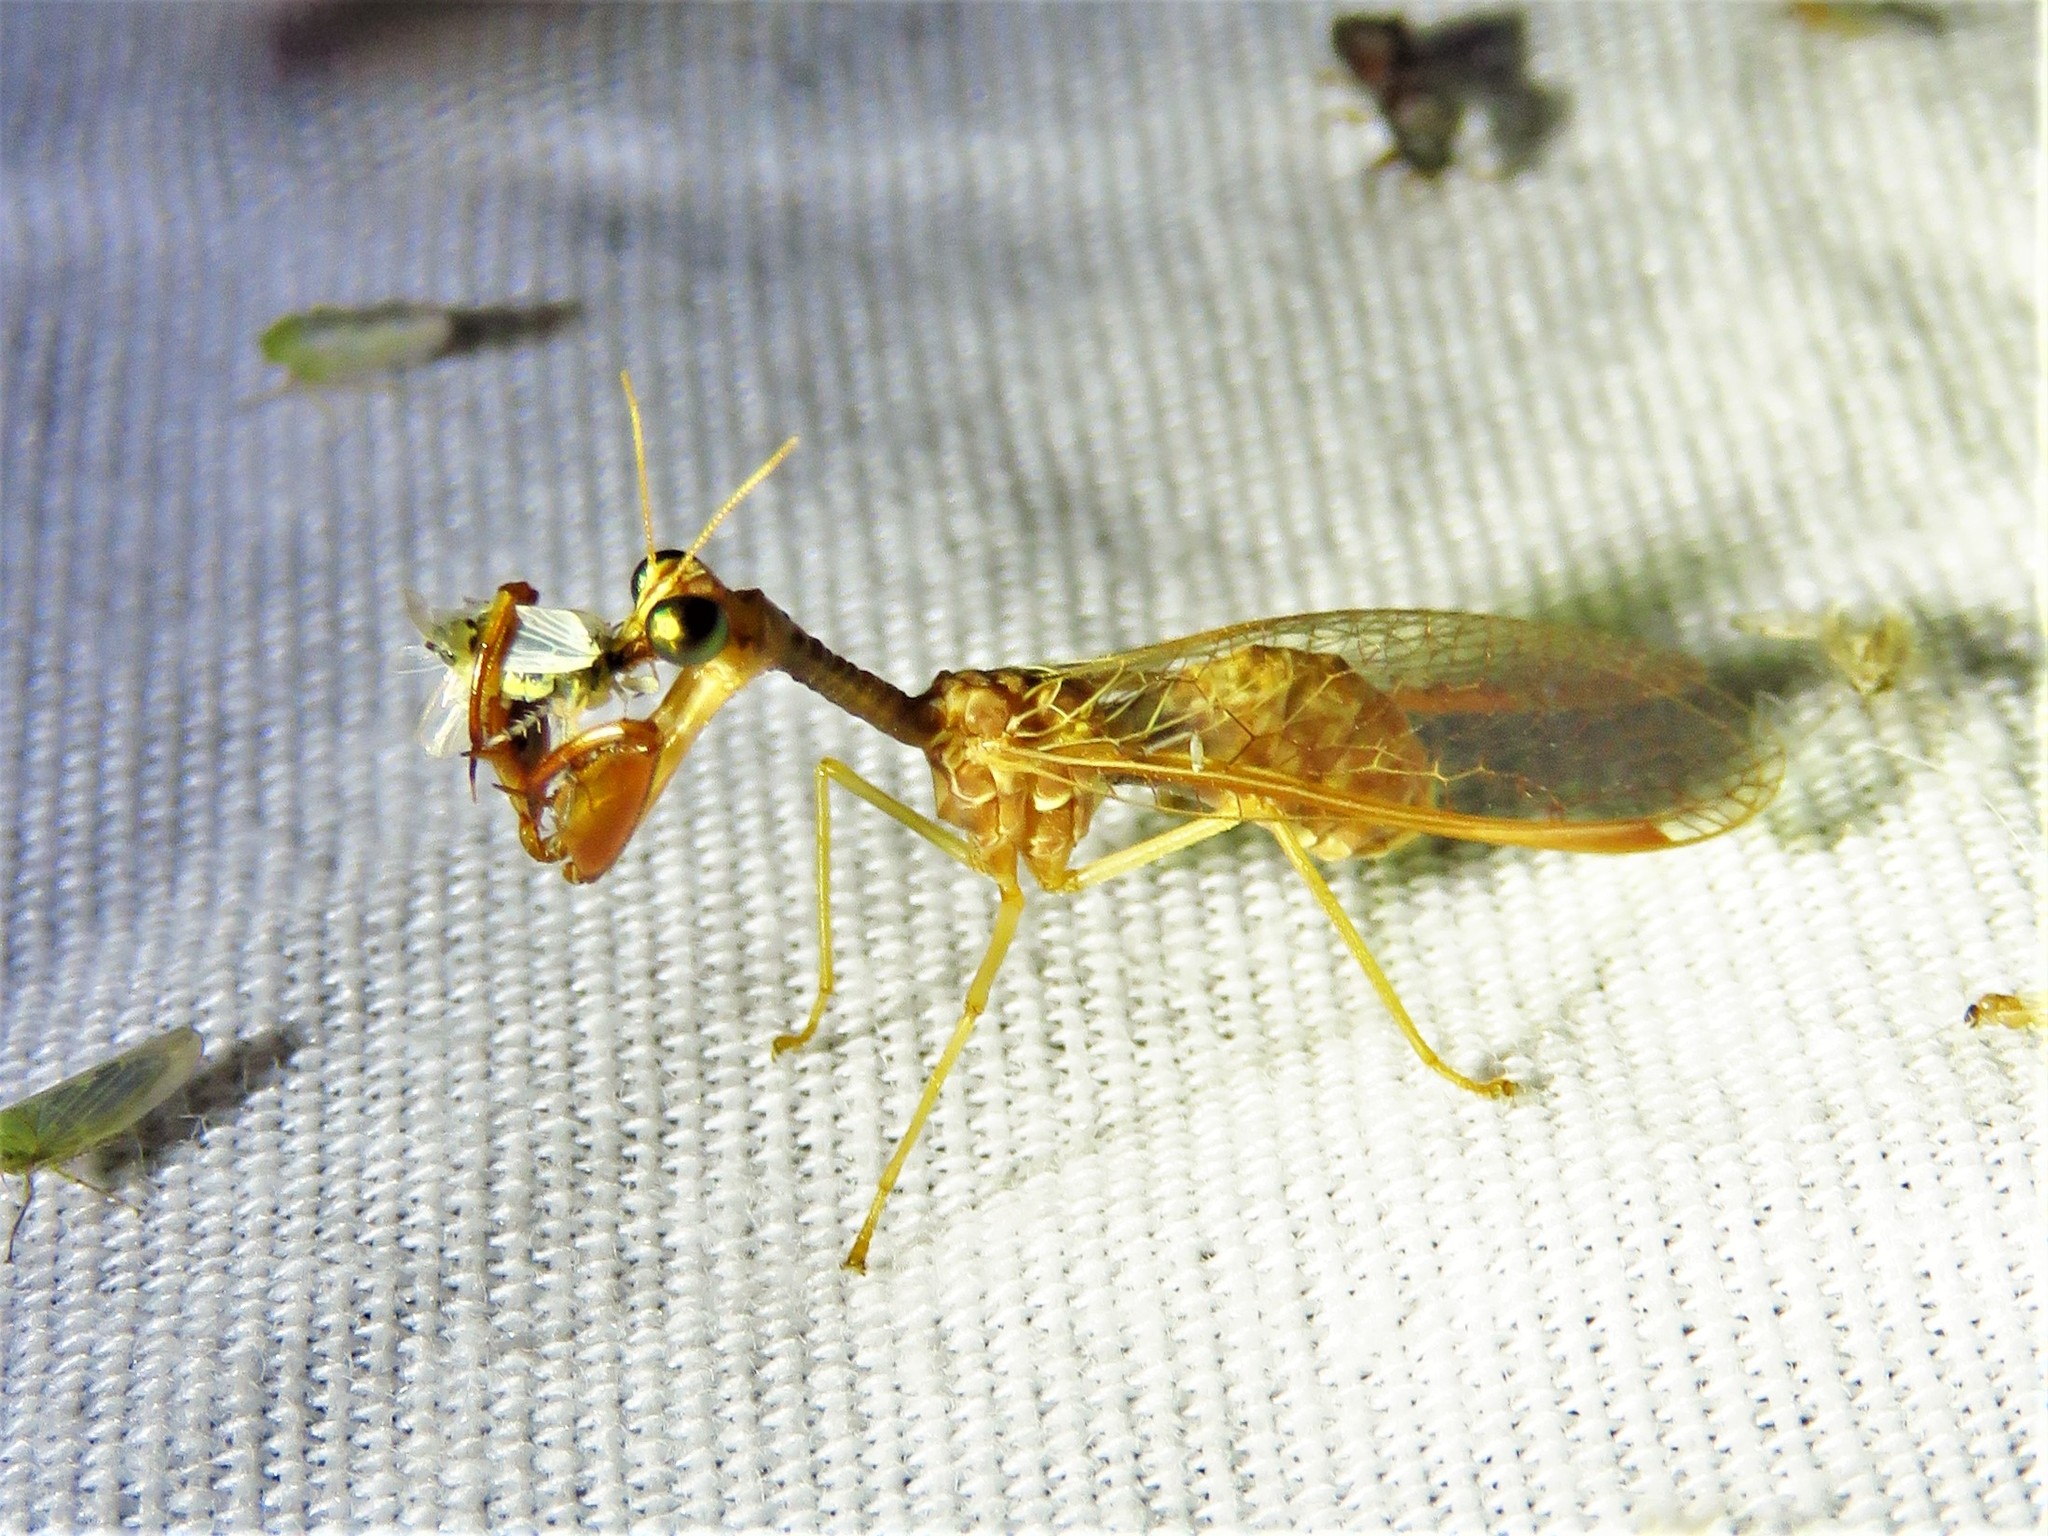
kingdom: Animalia
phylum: Arthropoda
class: Insecta
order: Neuroptera
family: Mantispidae
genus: Dicromantispa
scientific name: Dicromantispa sayi
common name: Say's mantidfly
